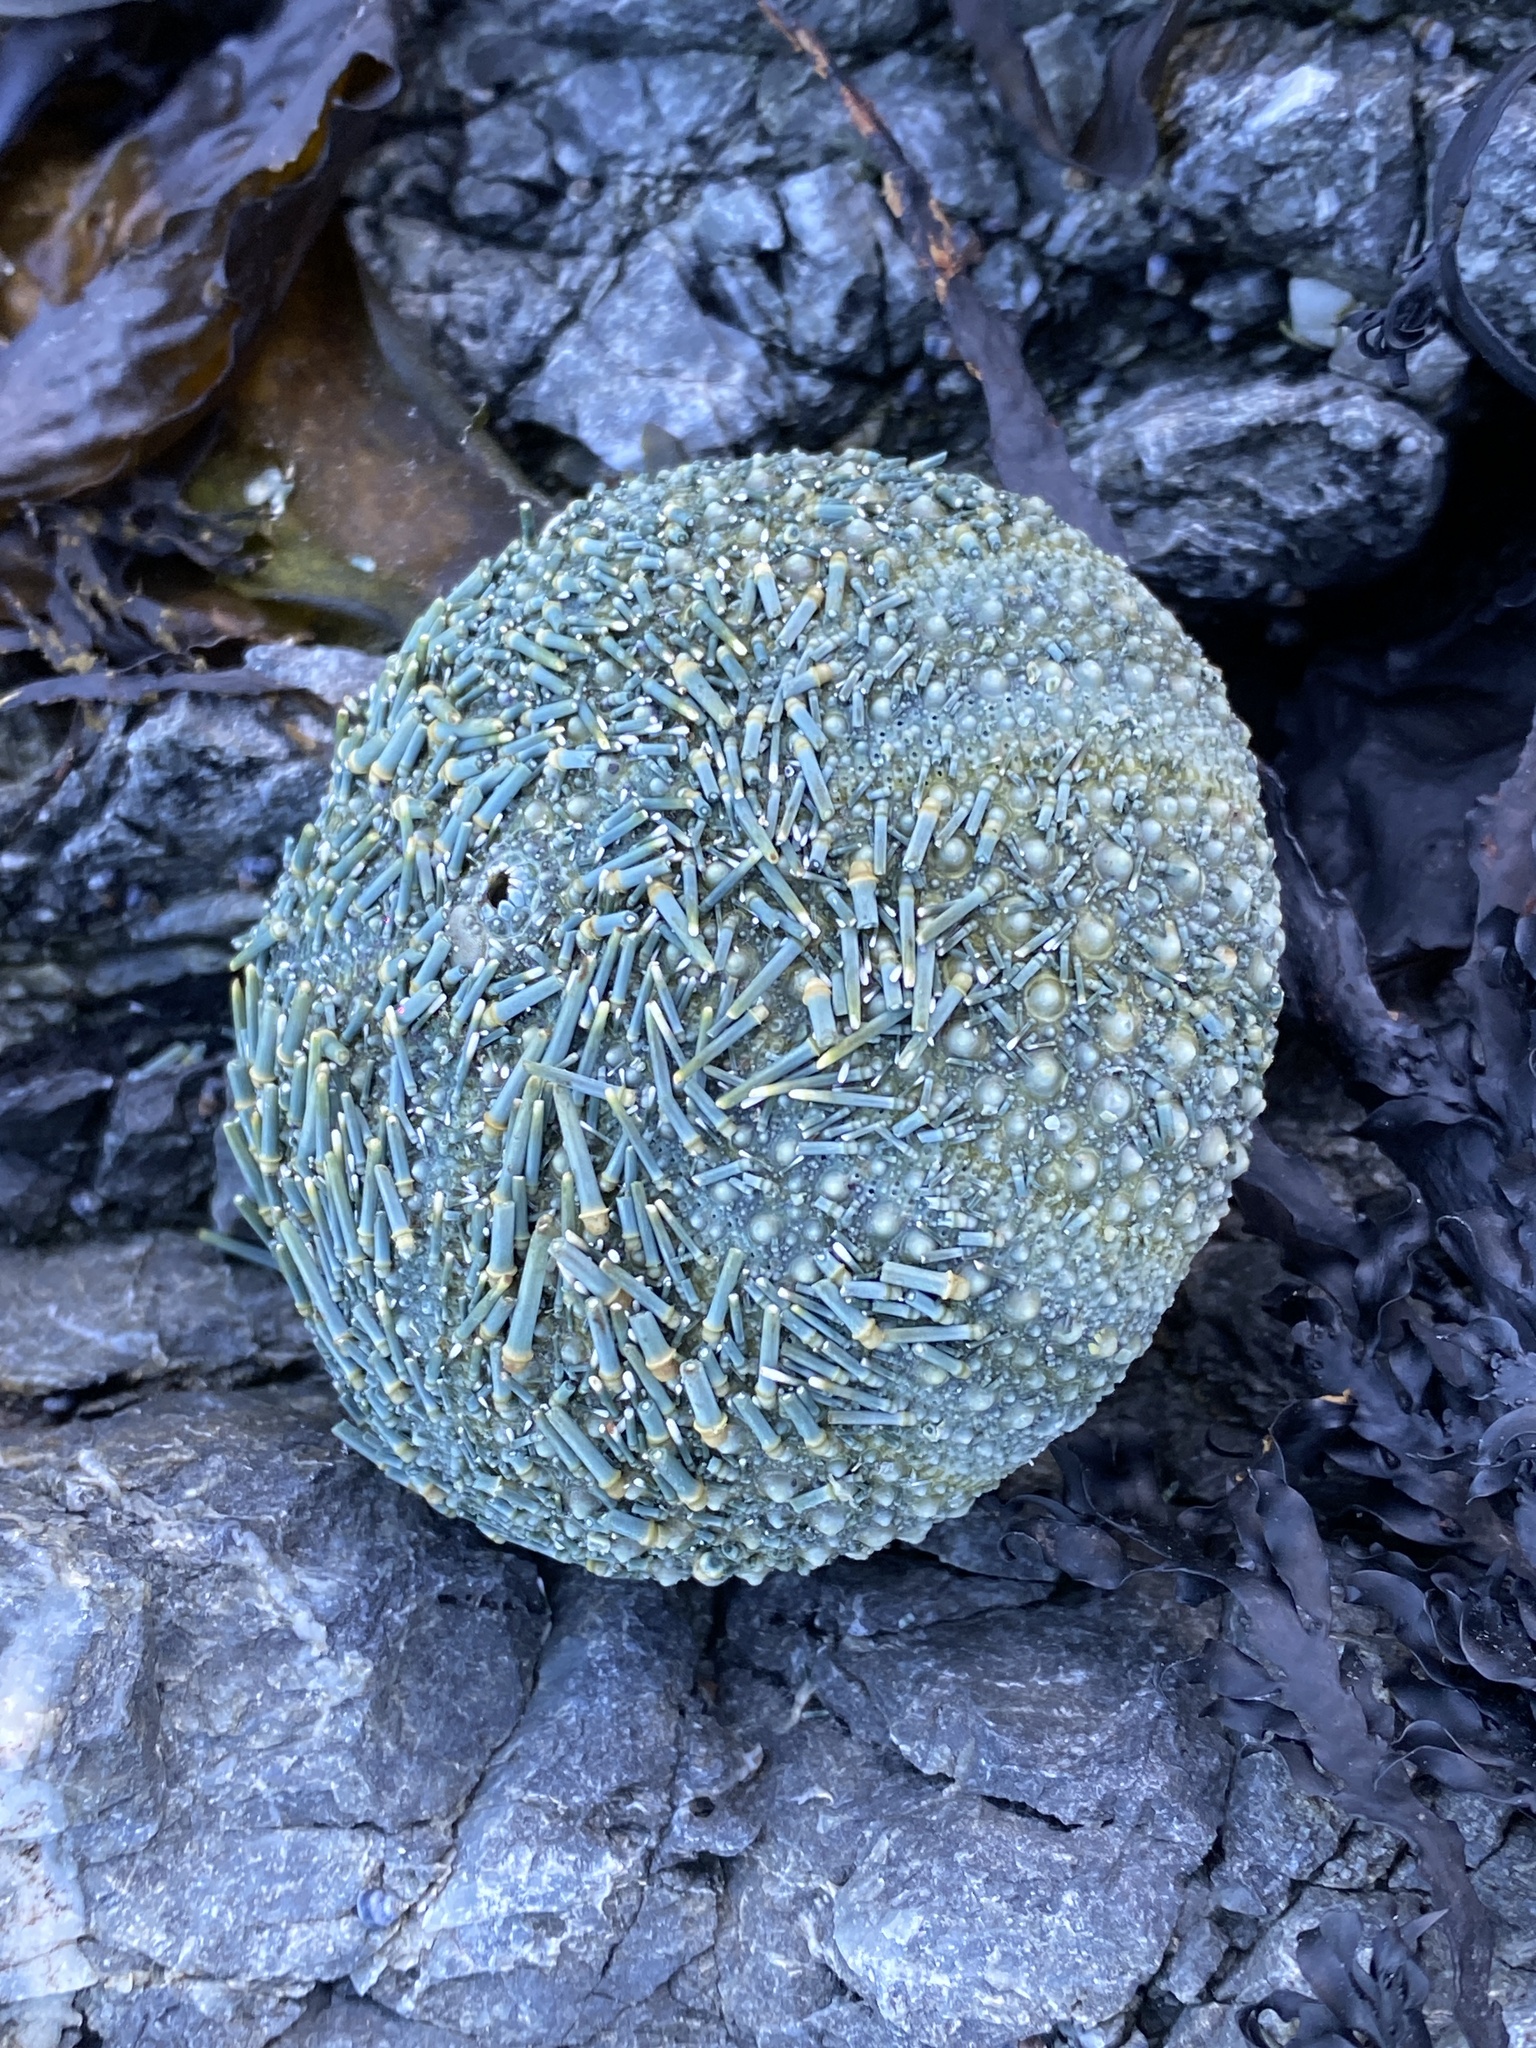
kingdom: Animalia
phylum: Echinodermata
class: Echinoidea
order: Camarodonta
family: Echinometridae
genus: Evechinus
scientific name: Evechinus chloroticus
